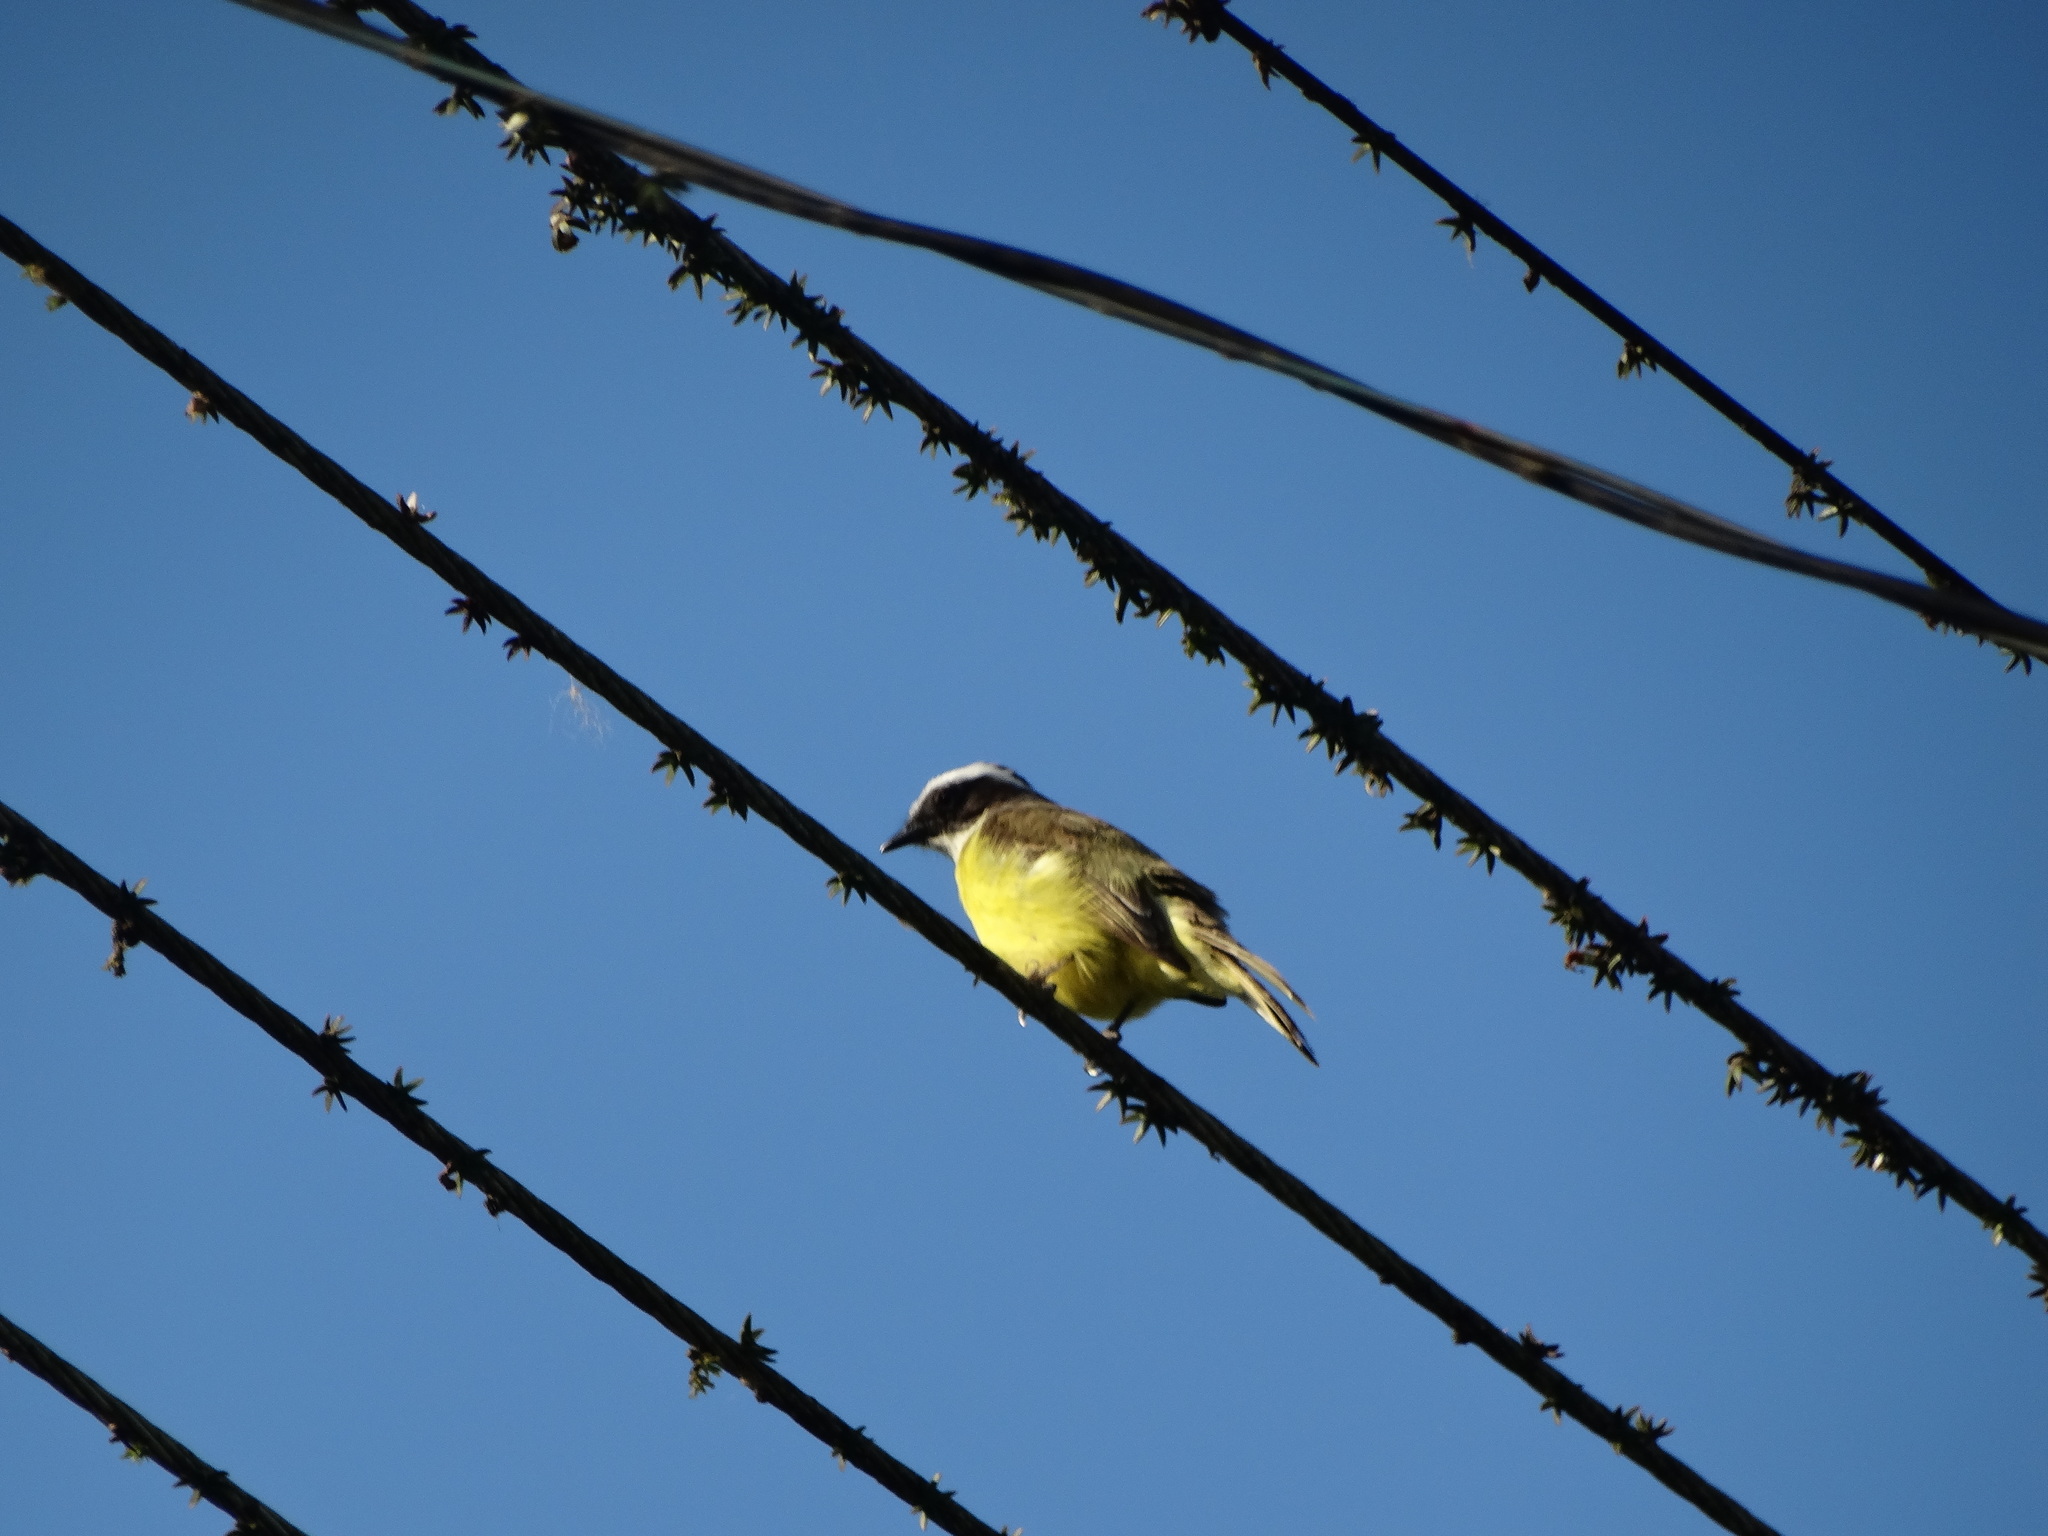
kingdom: Animalia
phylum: Chordata
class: Aves
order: Passeriformes
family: Tyrannidae
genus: Myiozetetes
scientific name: Myiozetetes similis
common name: Social flycatcher
